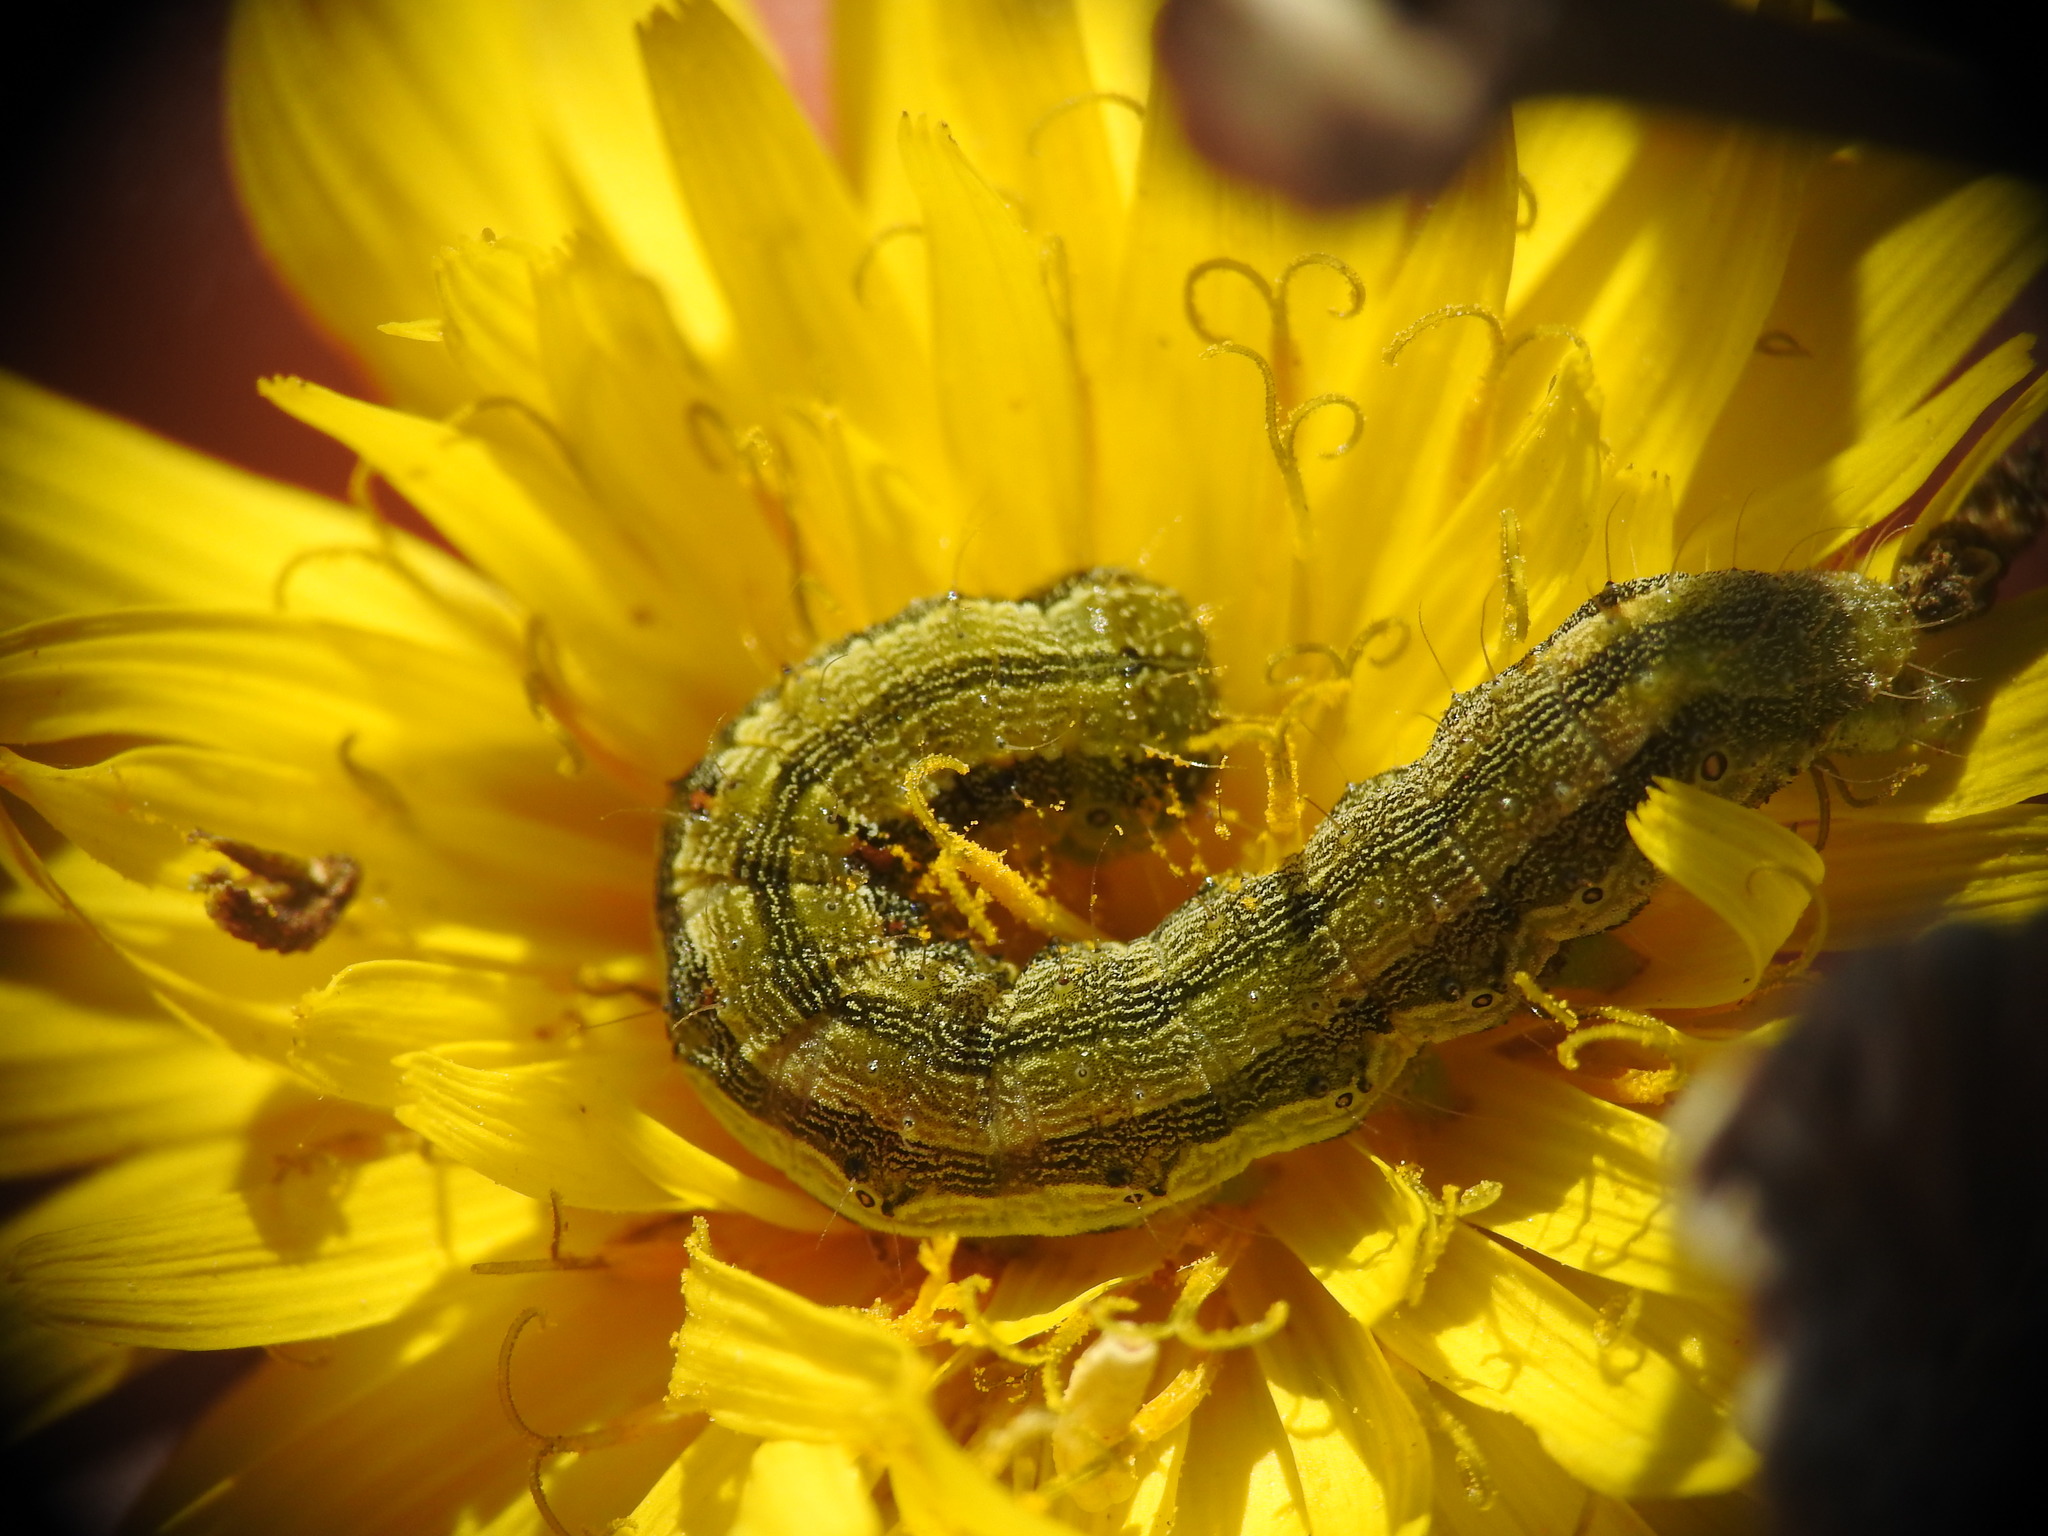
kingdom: Animalia
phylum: Arthropoda
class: Insecta
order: Lepidoptera
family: Noctuidae
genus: Helicoverpa
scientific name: Helicoverpa armigera
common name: Cotton bollworm
